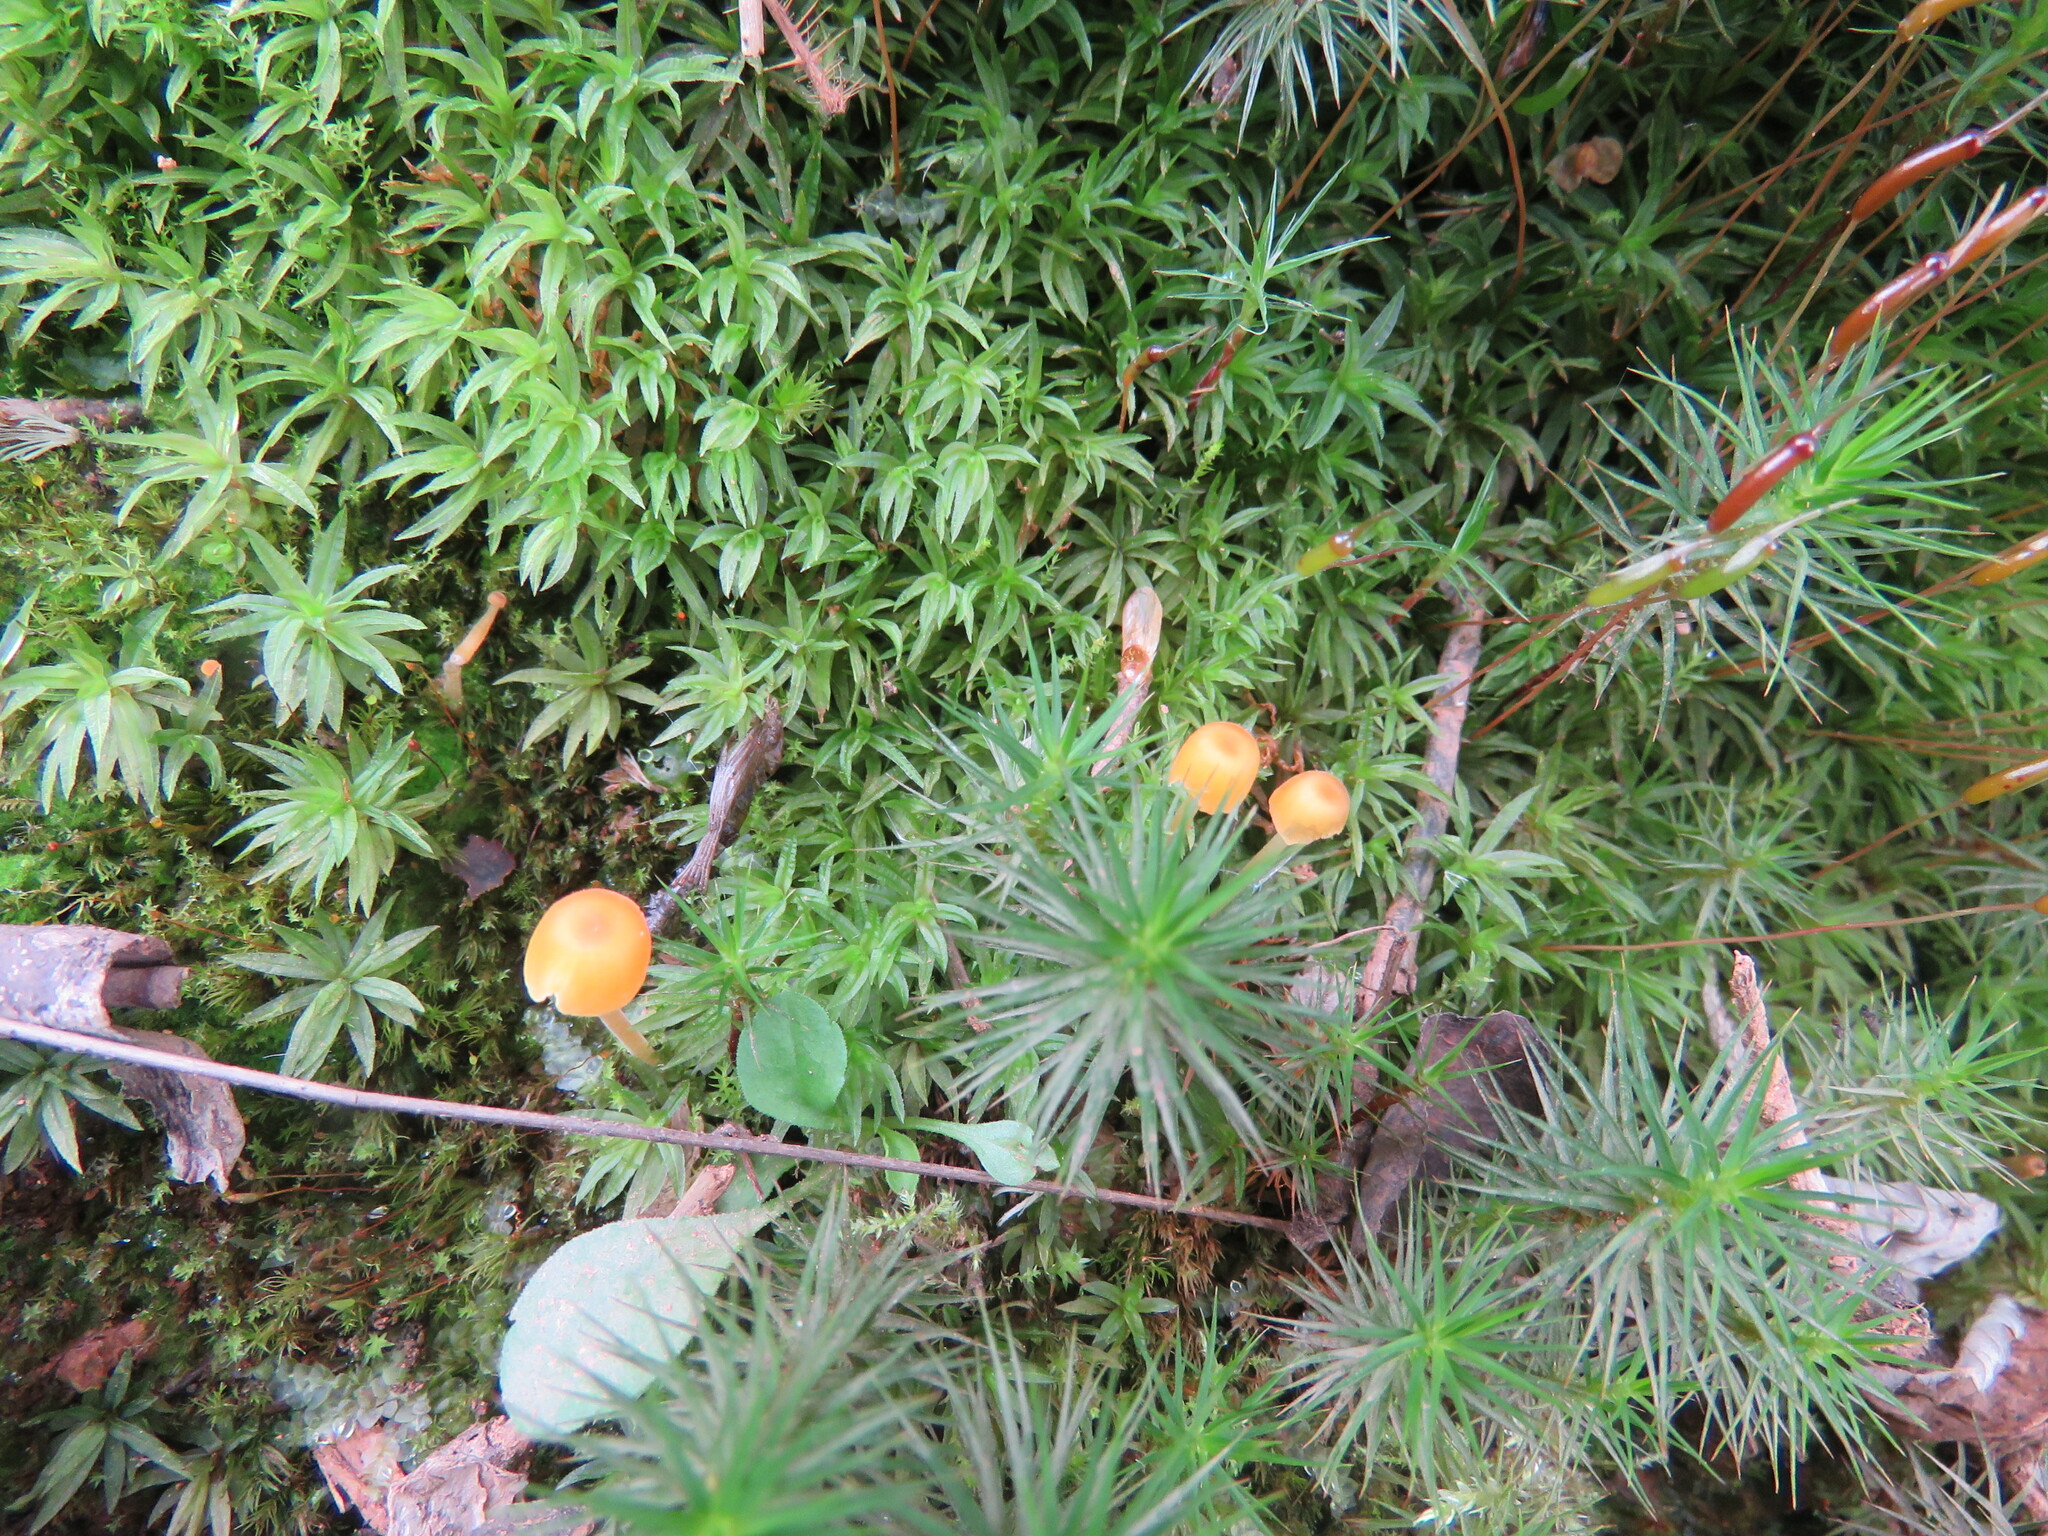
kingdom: Fungi
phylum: Basidiomycota
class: Agaricomycetes
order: Hymenochaetales
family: Rickenellaceae
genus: Rickenella
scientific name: Rickenella fibula
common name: Orange mosscap
